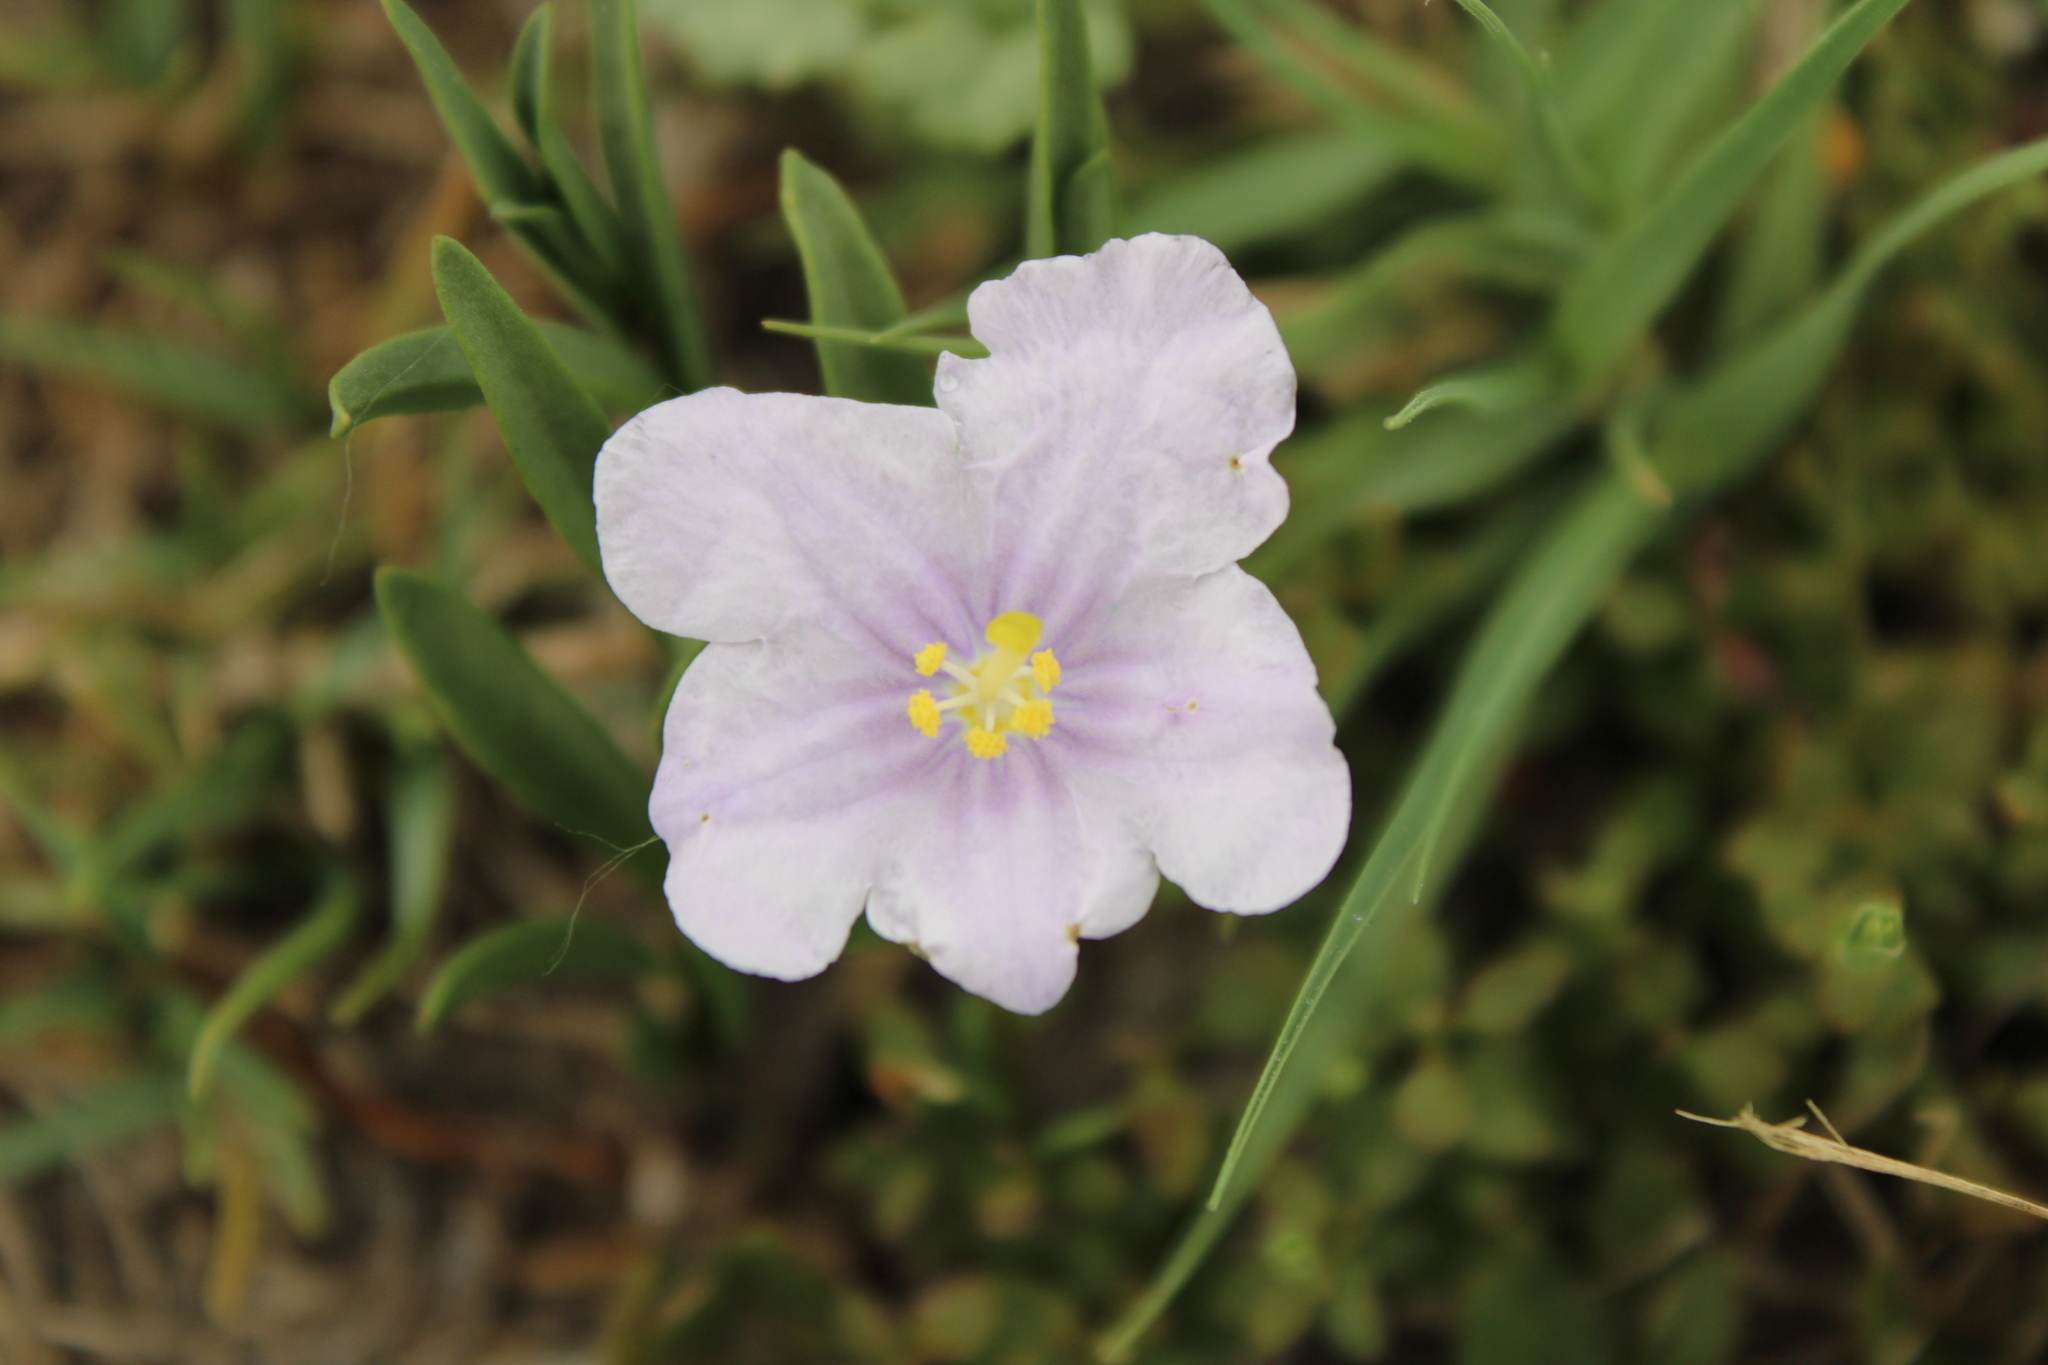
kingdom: Plantae
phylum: Tracheophyta
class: Magnoliopsida
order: Solanales
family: Solanaceae
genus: Nierembergia
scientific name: Nierembergia aristata
